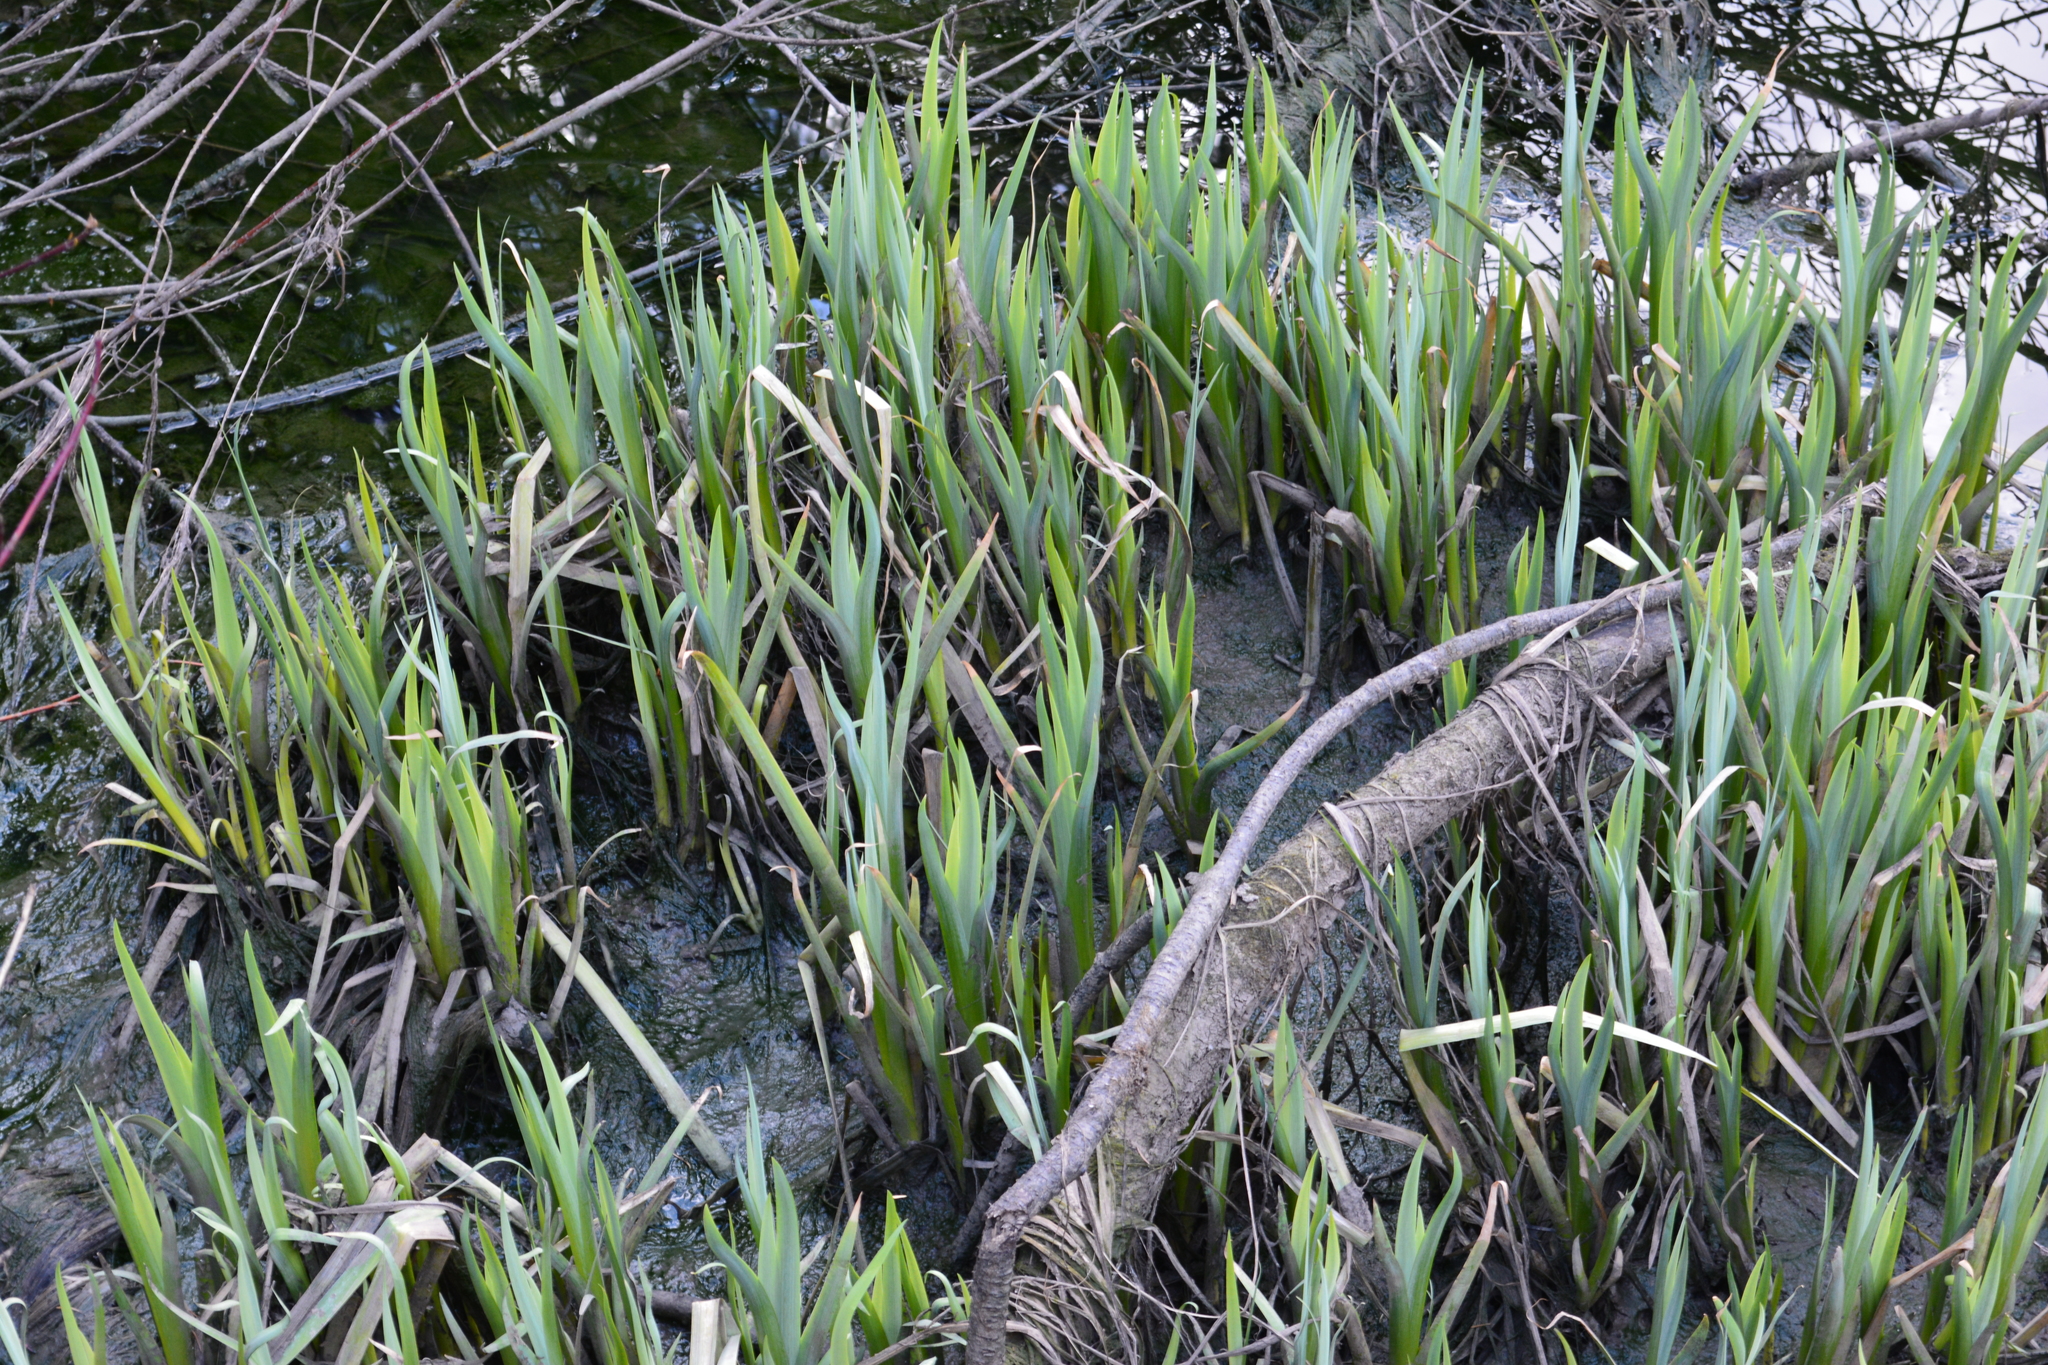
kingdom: Plantae
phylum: Tracheophyta
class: Liliopsida
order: Asparagales
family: Iridaceae
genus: Iris
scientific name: Iris pseudacorus
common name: Yellow flag
